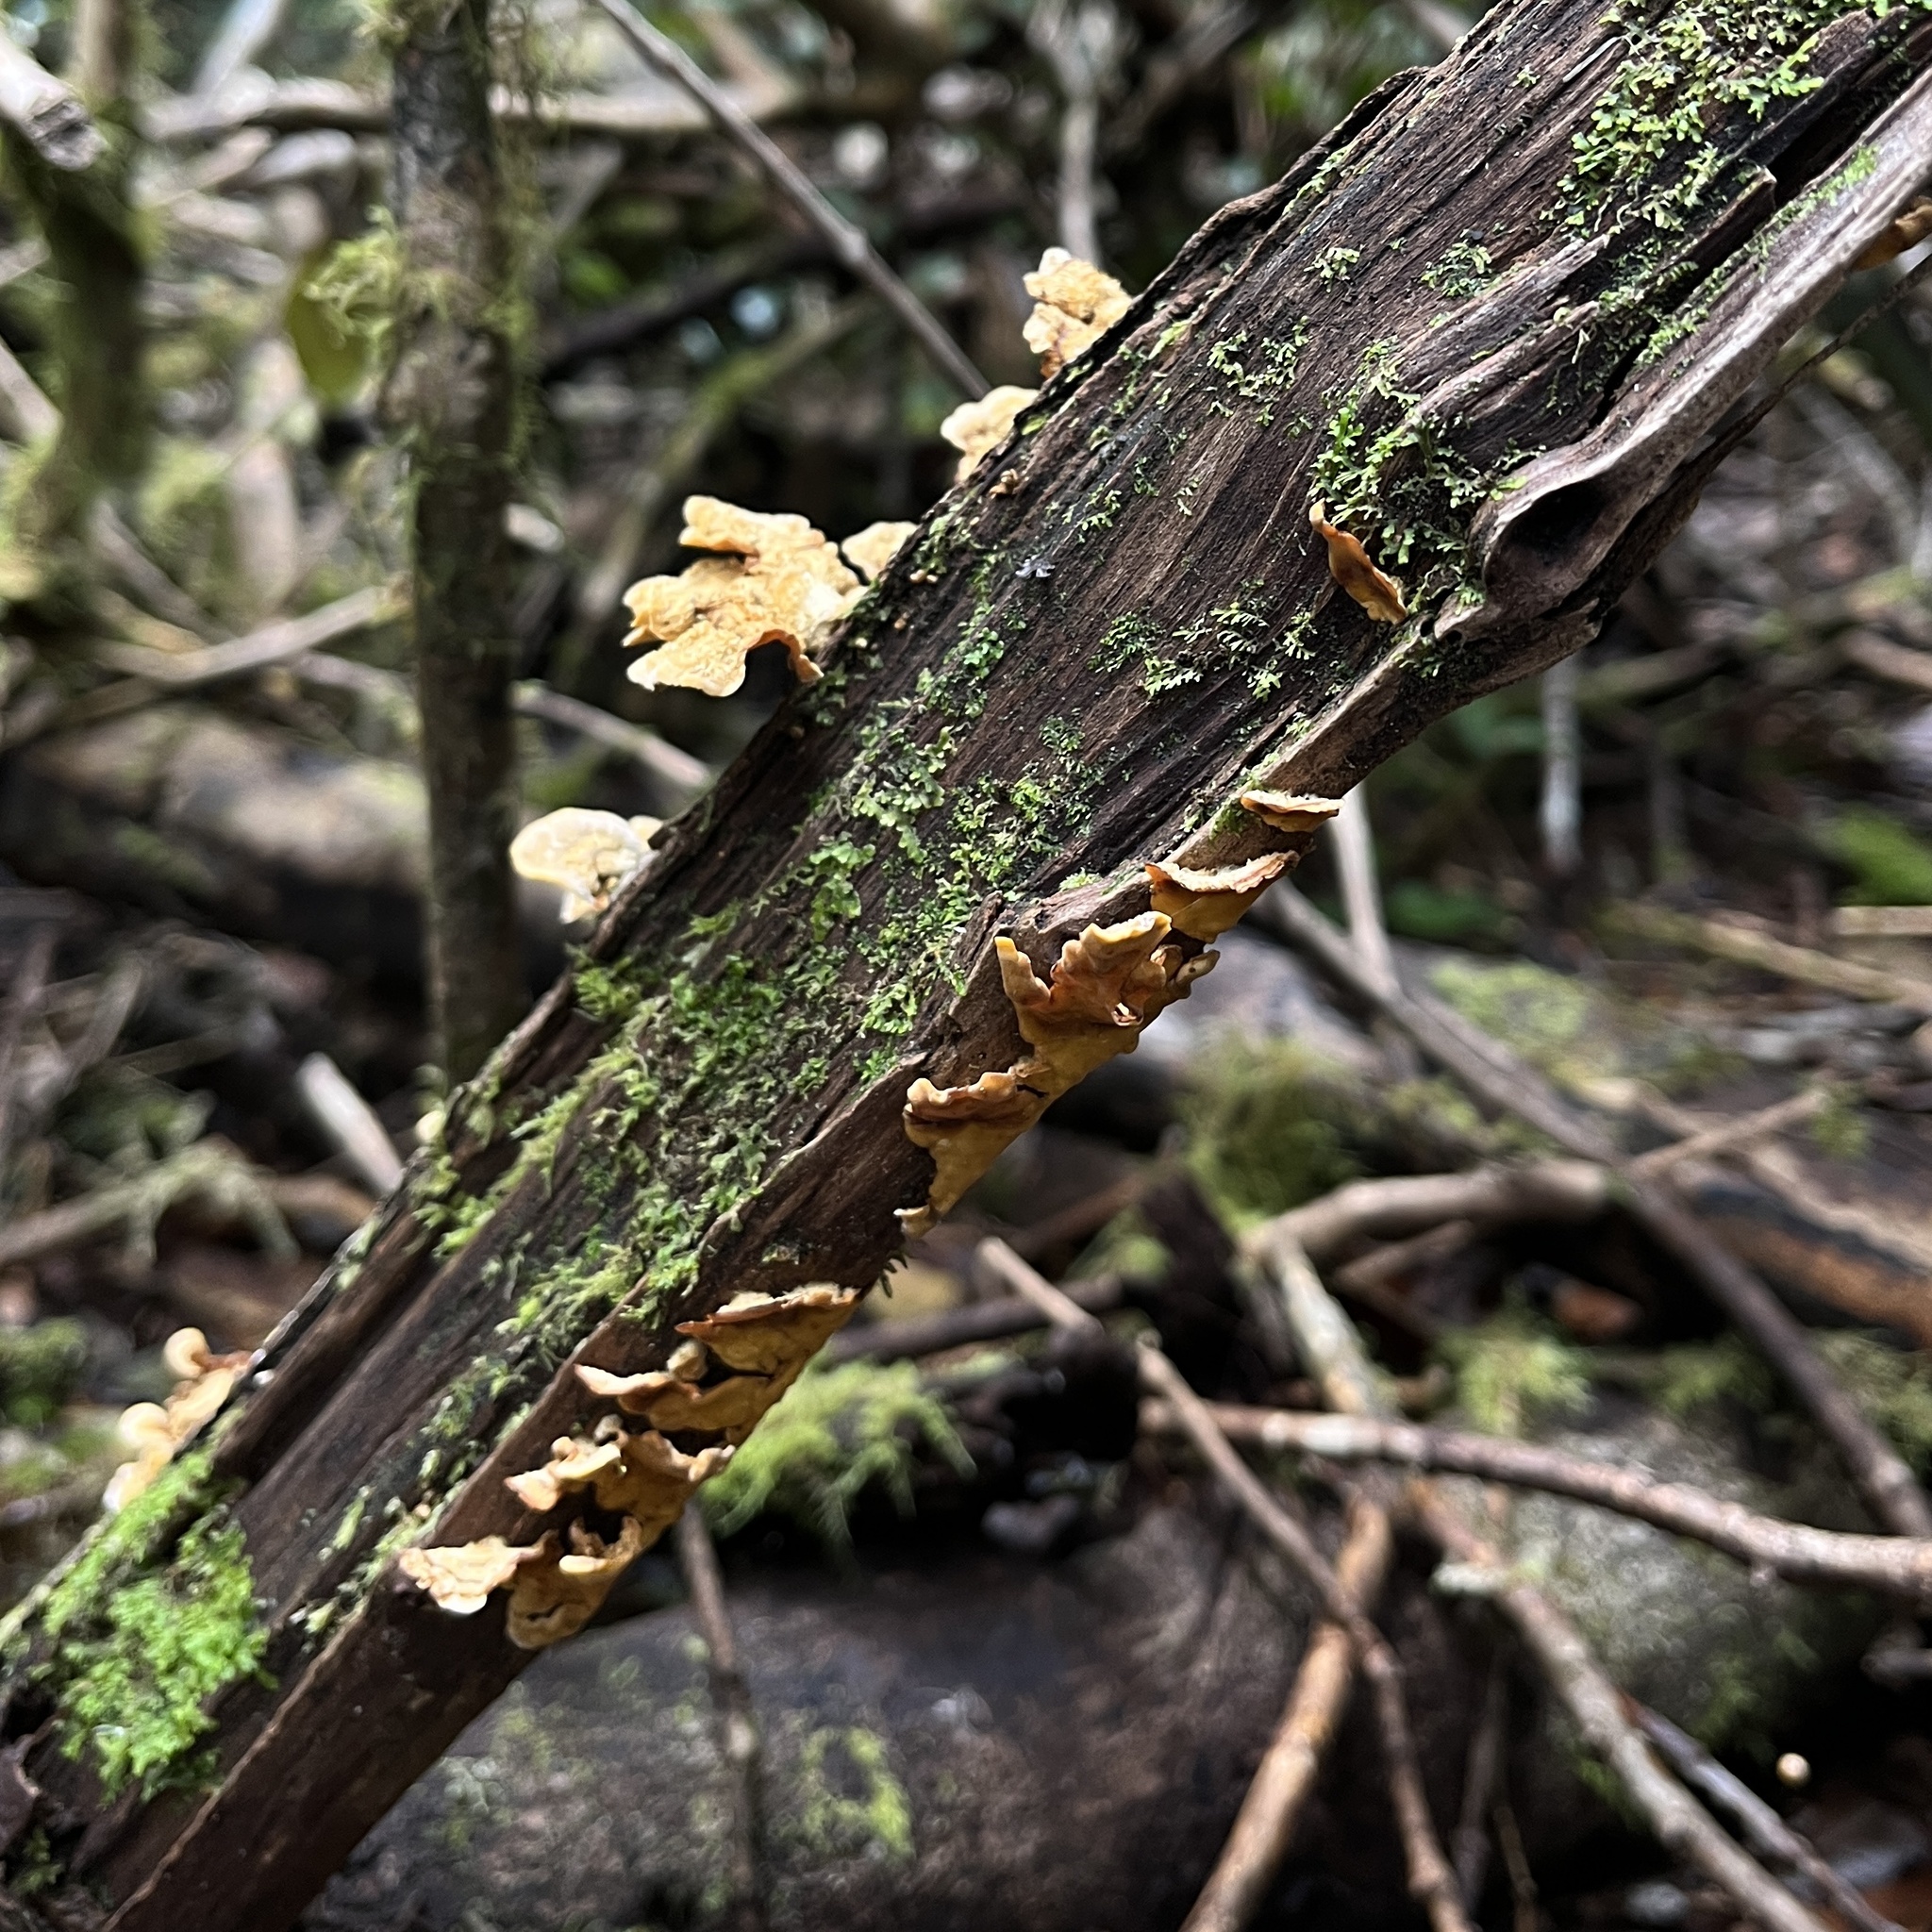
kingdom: Fungi
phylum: Basidiomycota
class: Agaricomycetes
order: Russulales
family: Stereaceae
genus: Stereum
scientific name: Stereum hirsutum
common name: Hairy curtain crust
